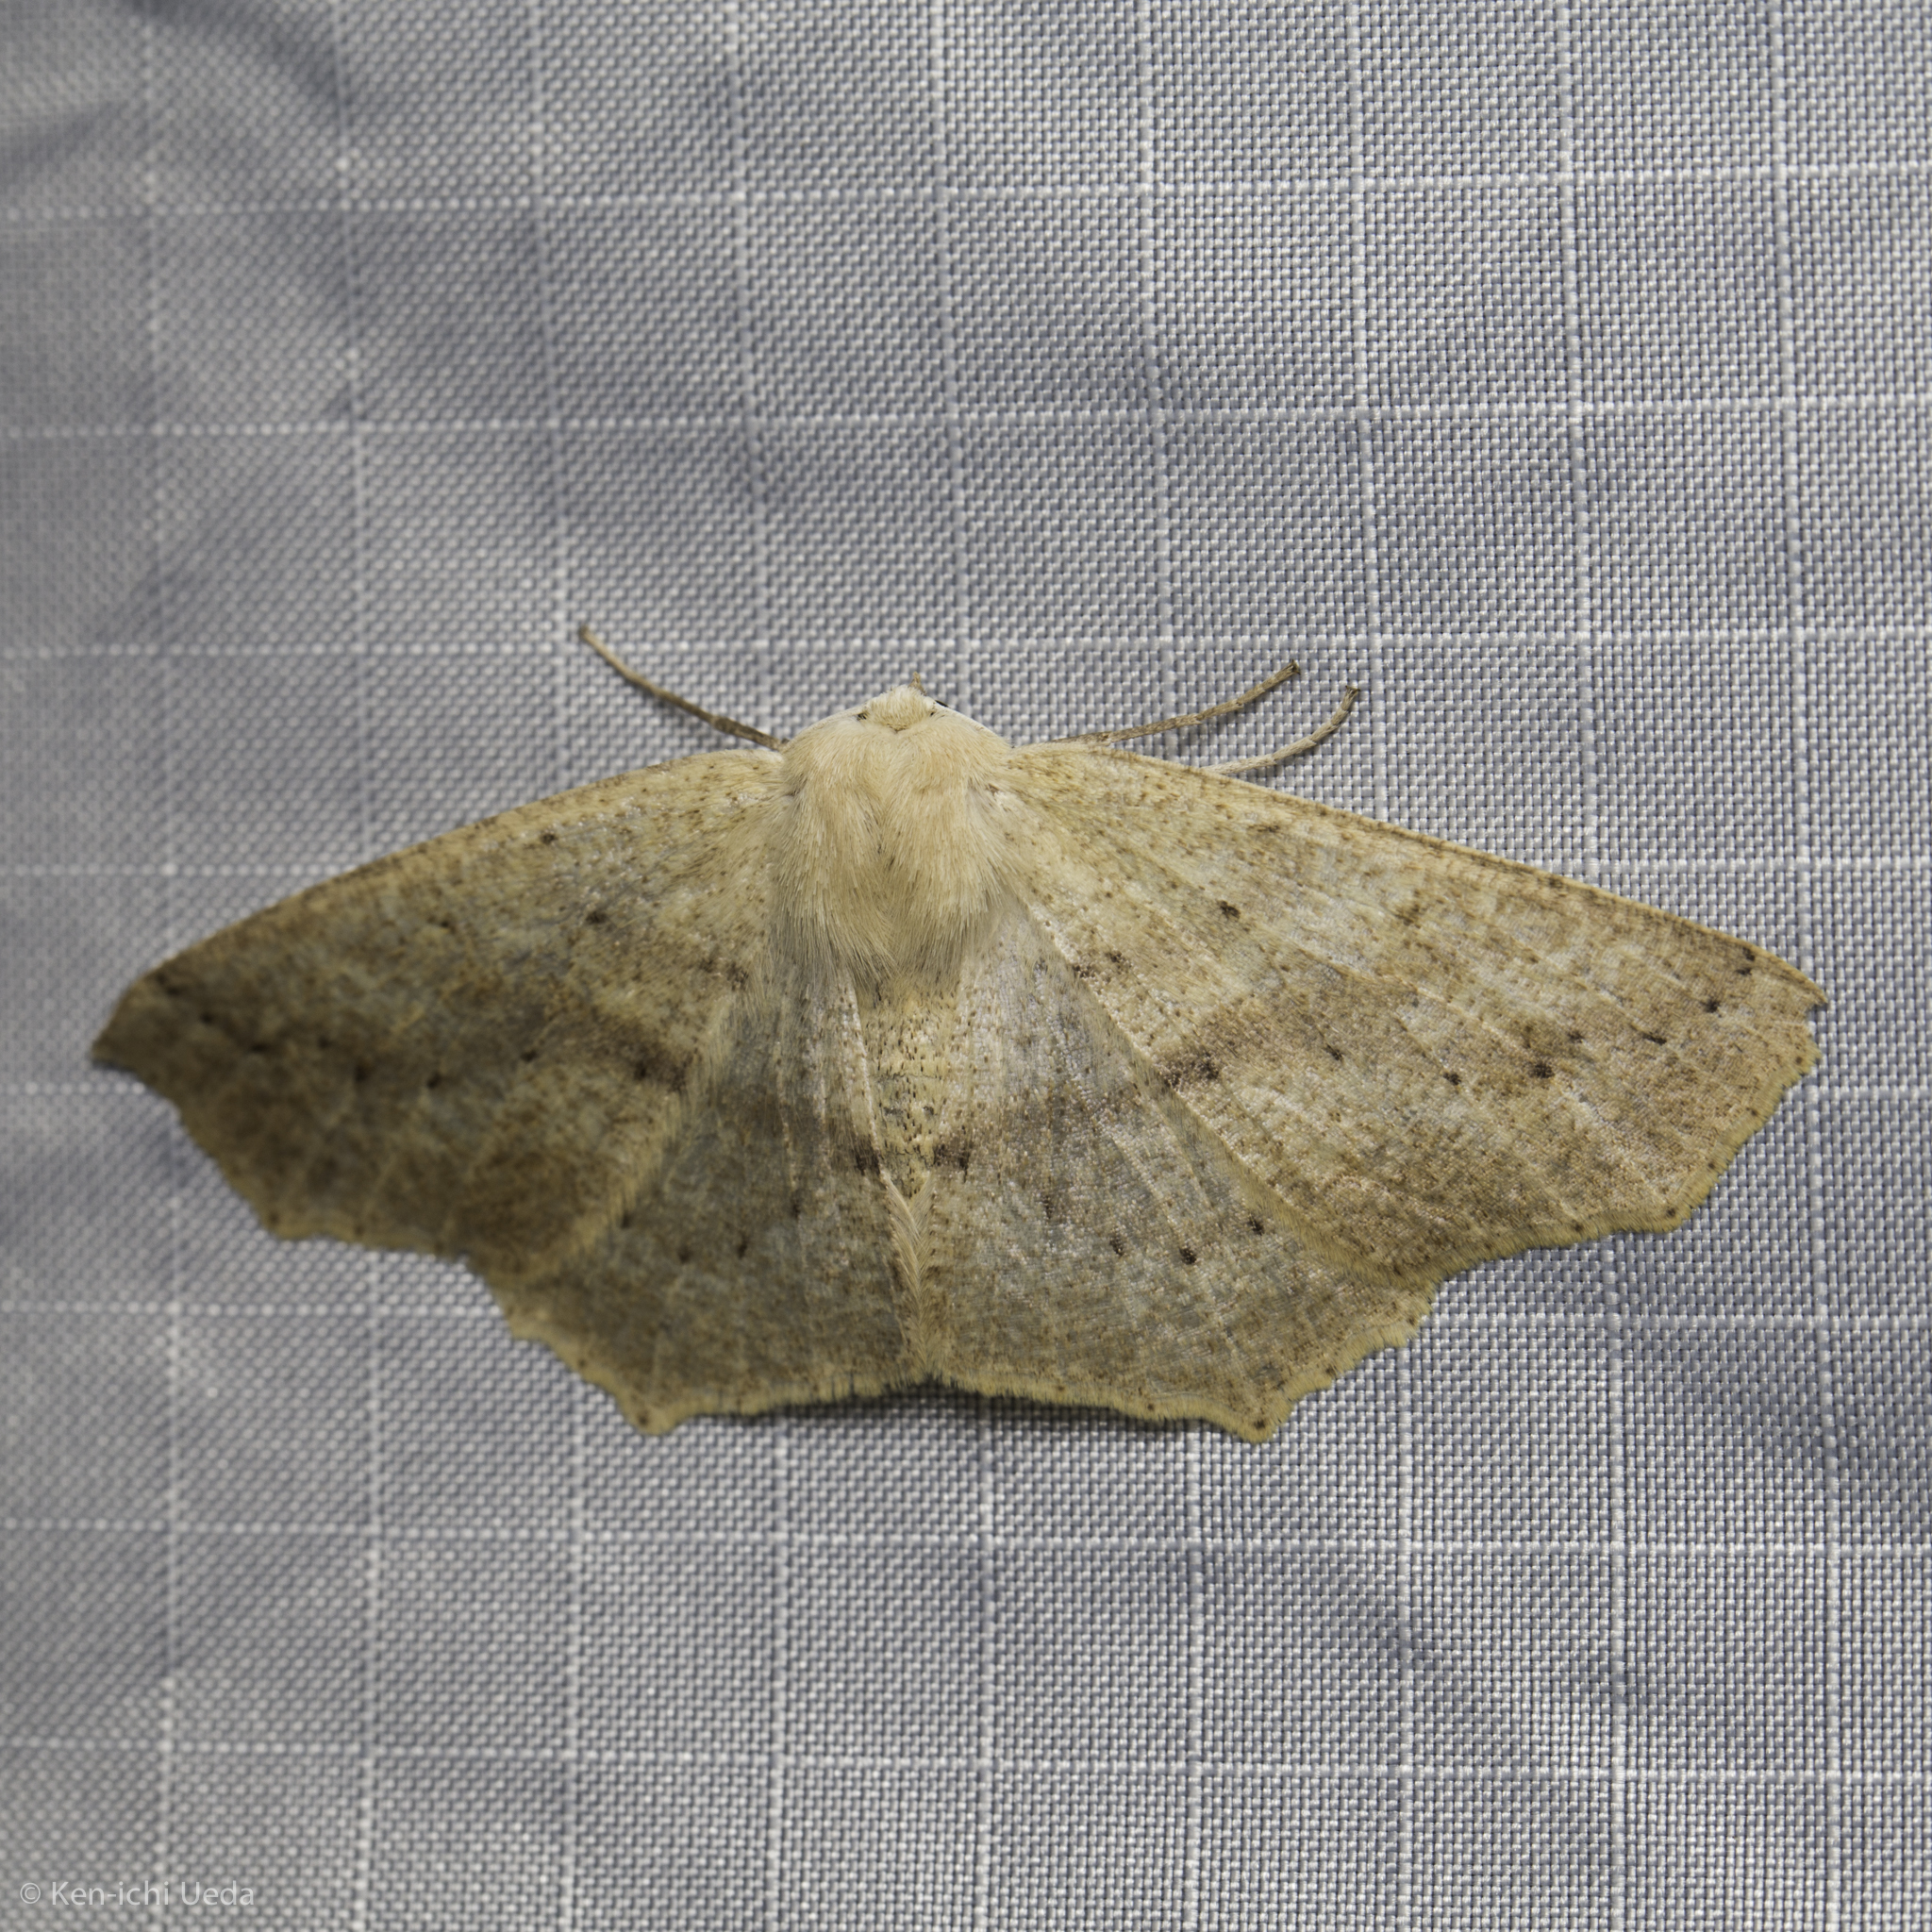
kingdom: Animalia
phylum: Arthropoda
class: Insecta
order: Lepidoptera
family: Geometridae
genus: Sabulodes
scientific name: Sabulodes aegrotata
